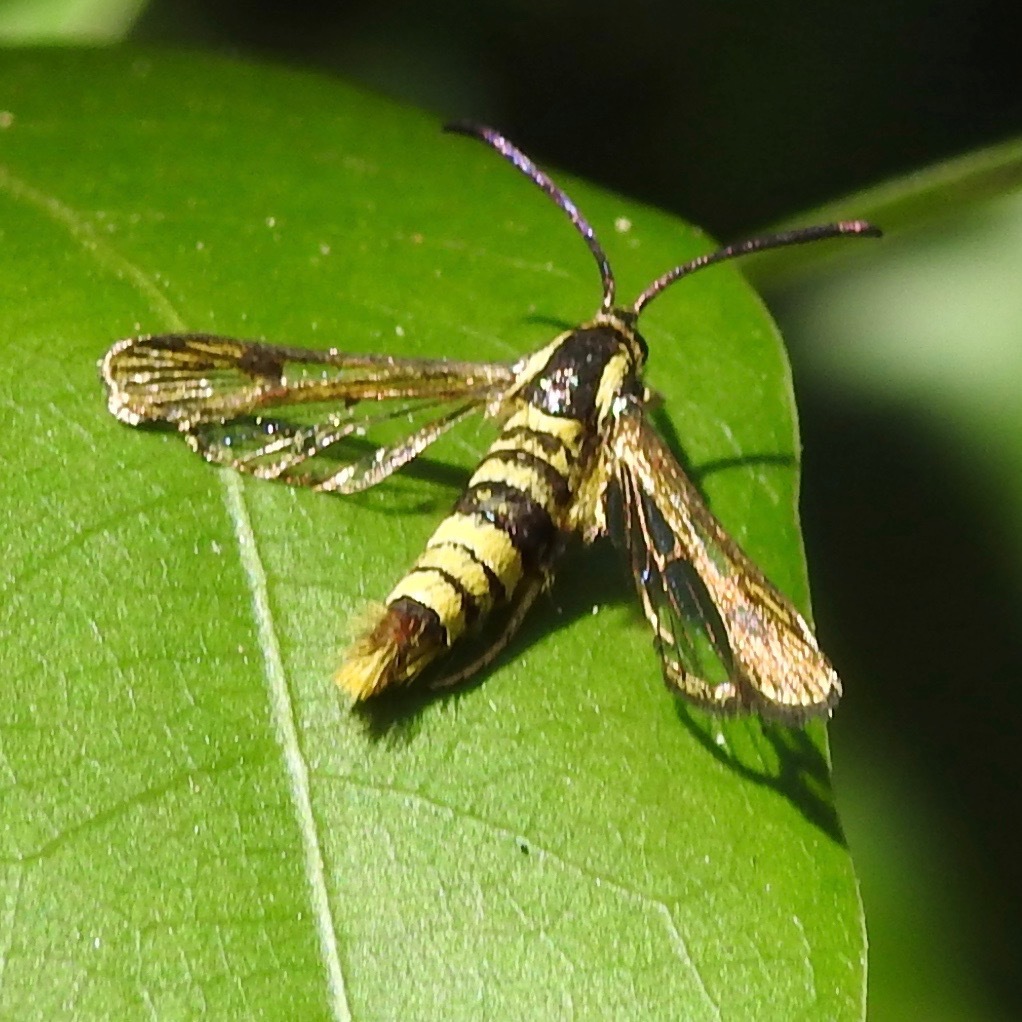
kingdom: Animalia
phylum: Arthropoda
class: Insecta
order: Lepidoptera
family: Sesiidae
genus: Synanthedon
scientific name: Synanthedon resplendens
